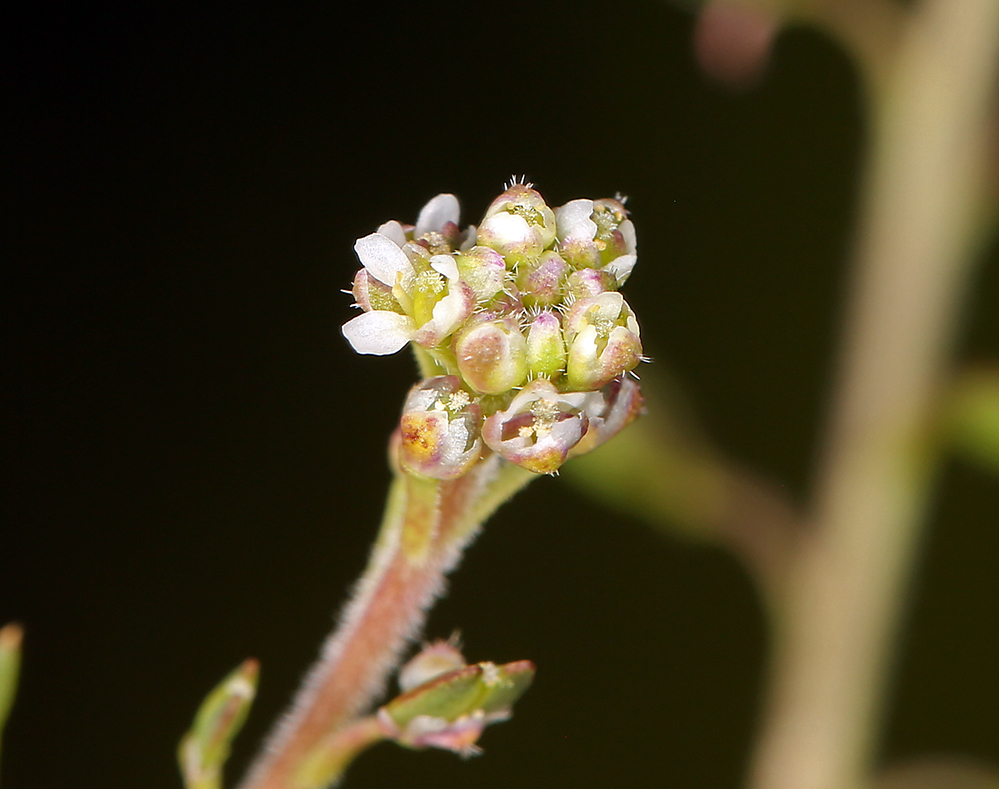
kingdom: Plantae
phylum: Tracheophyta
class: Magnoliopsida
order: Brassicales
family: Brassicaceae
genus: Lepidium
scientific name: Lepidium nitidum
